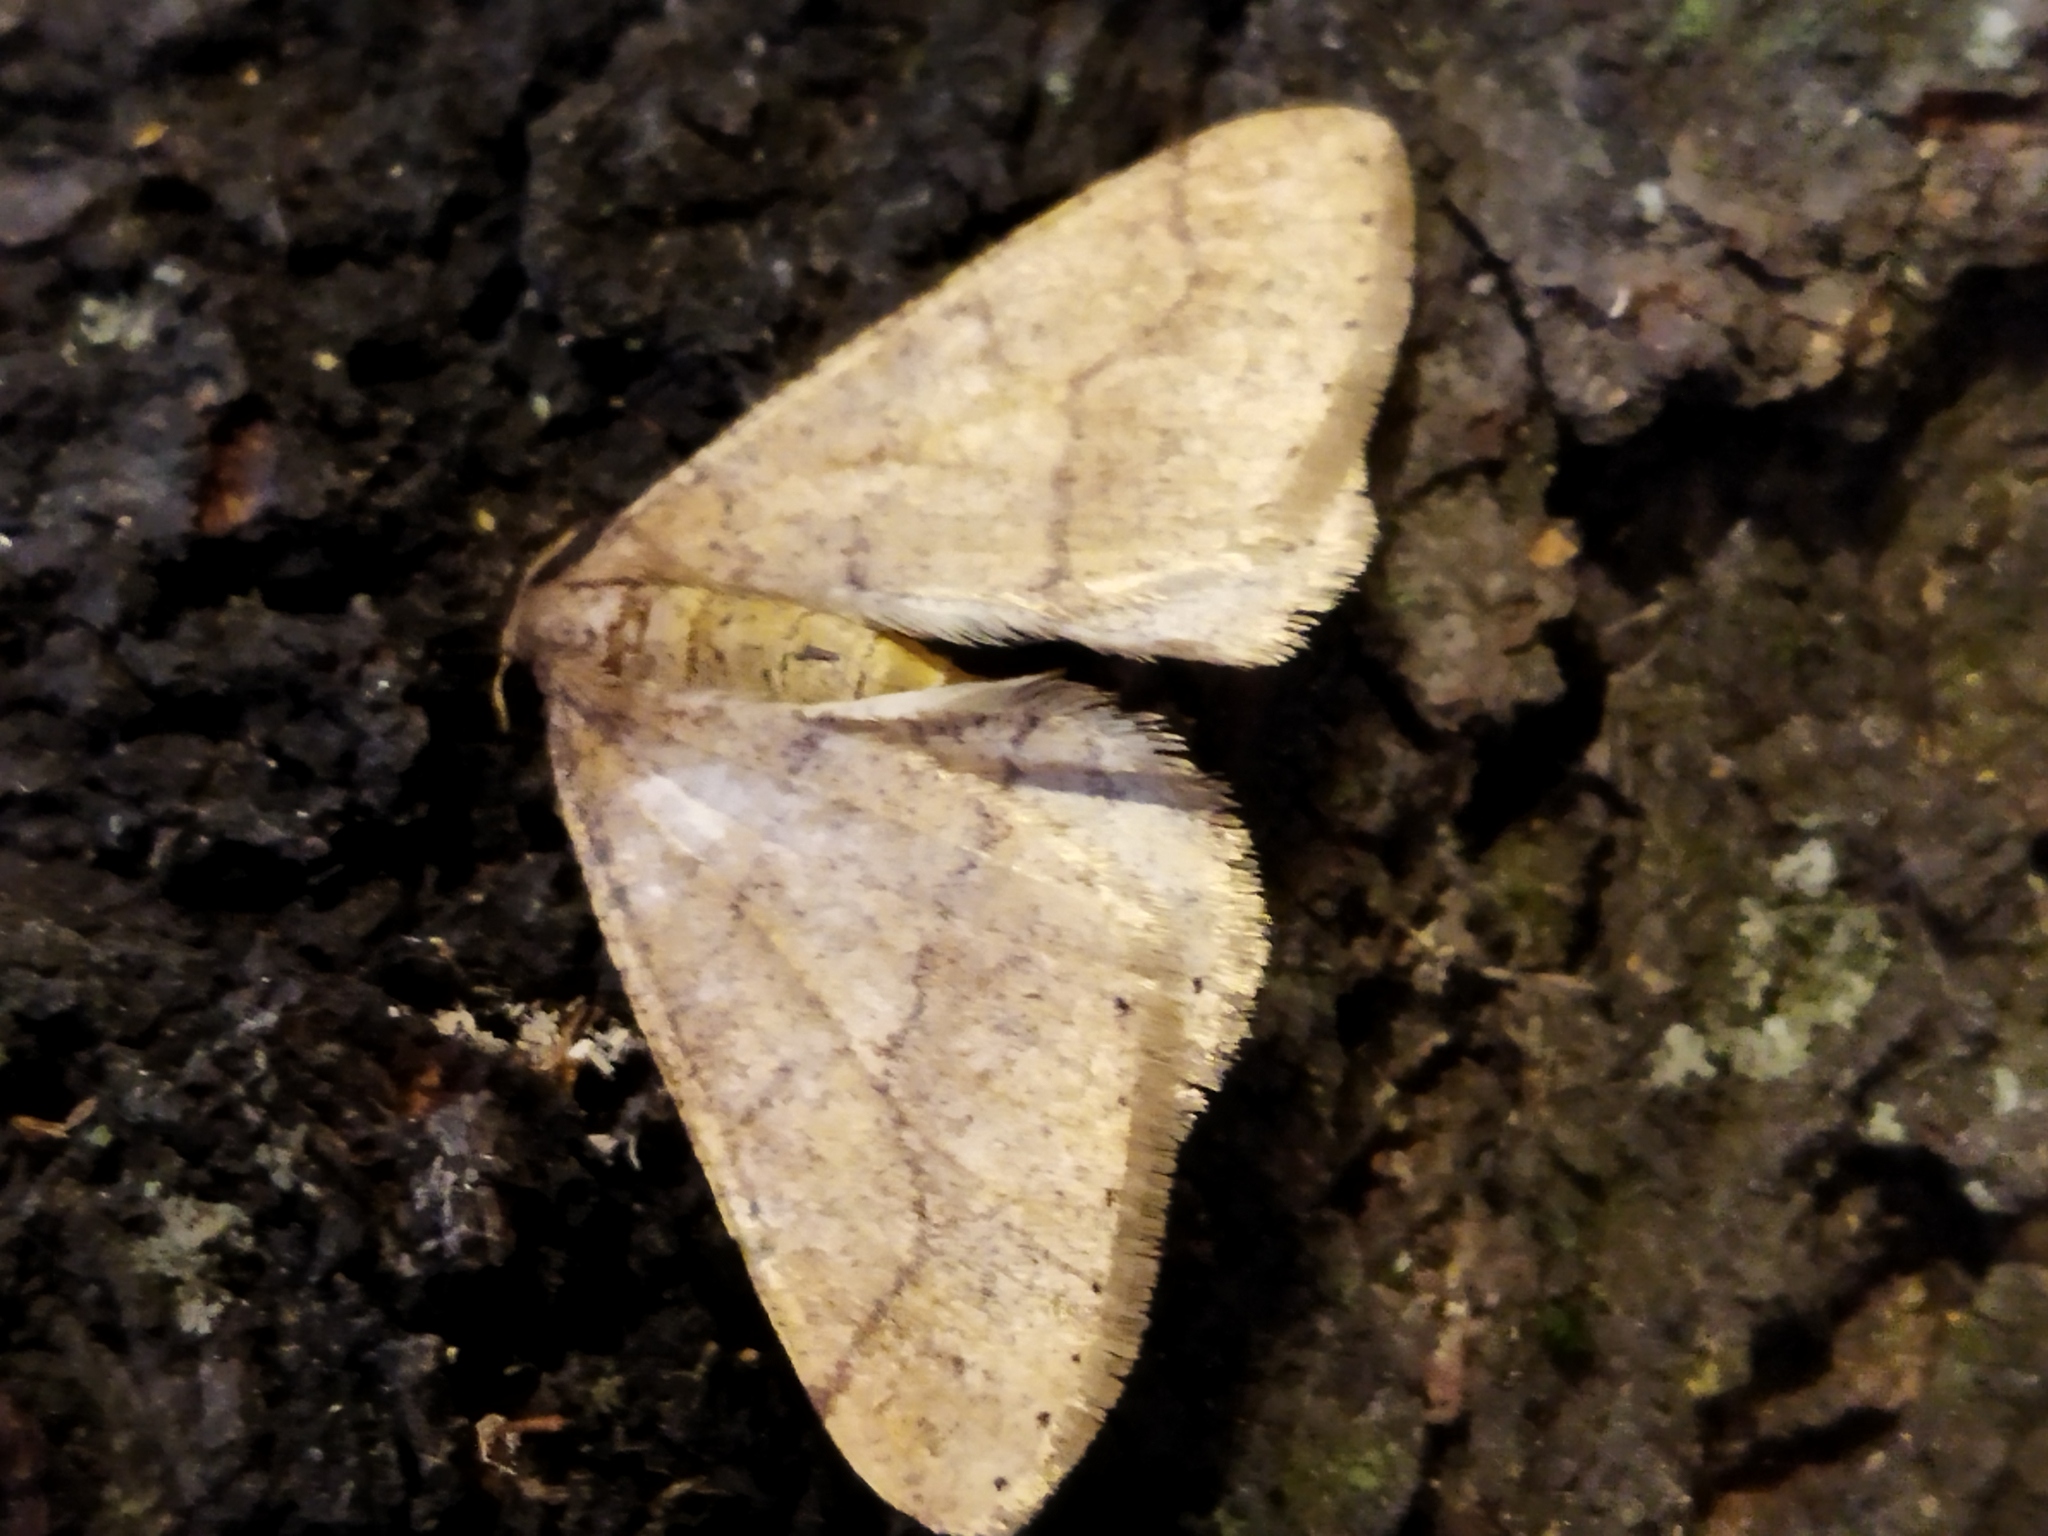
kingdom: Animalia
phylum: Arthropoda
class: Insecta
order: Lepidoptera
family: Geometridae
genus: Agriopis
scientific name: Agriopis marginaria
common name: Dotted border
